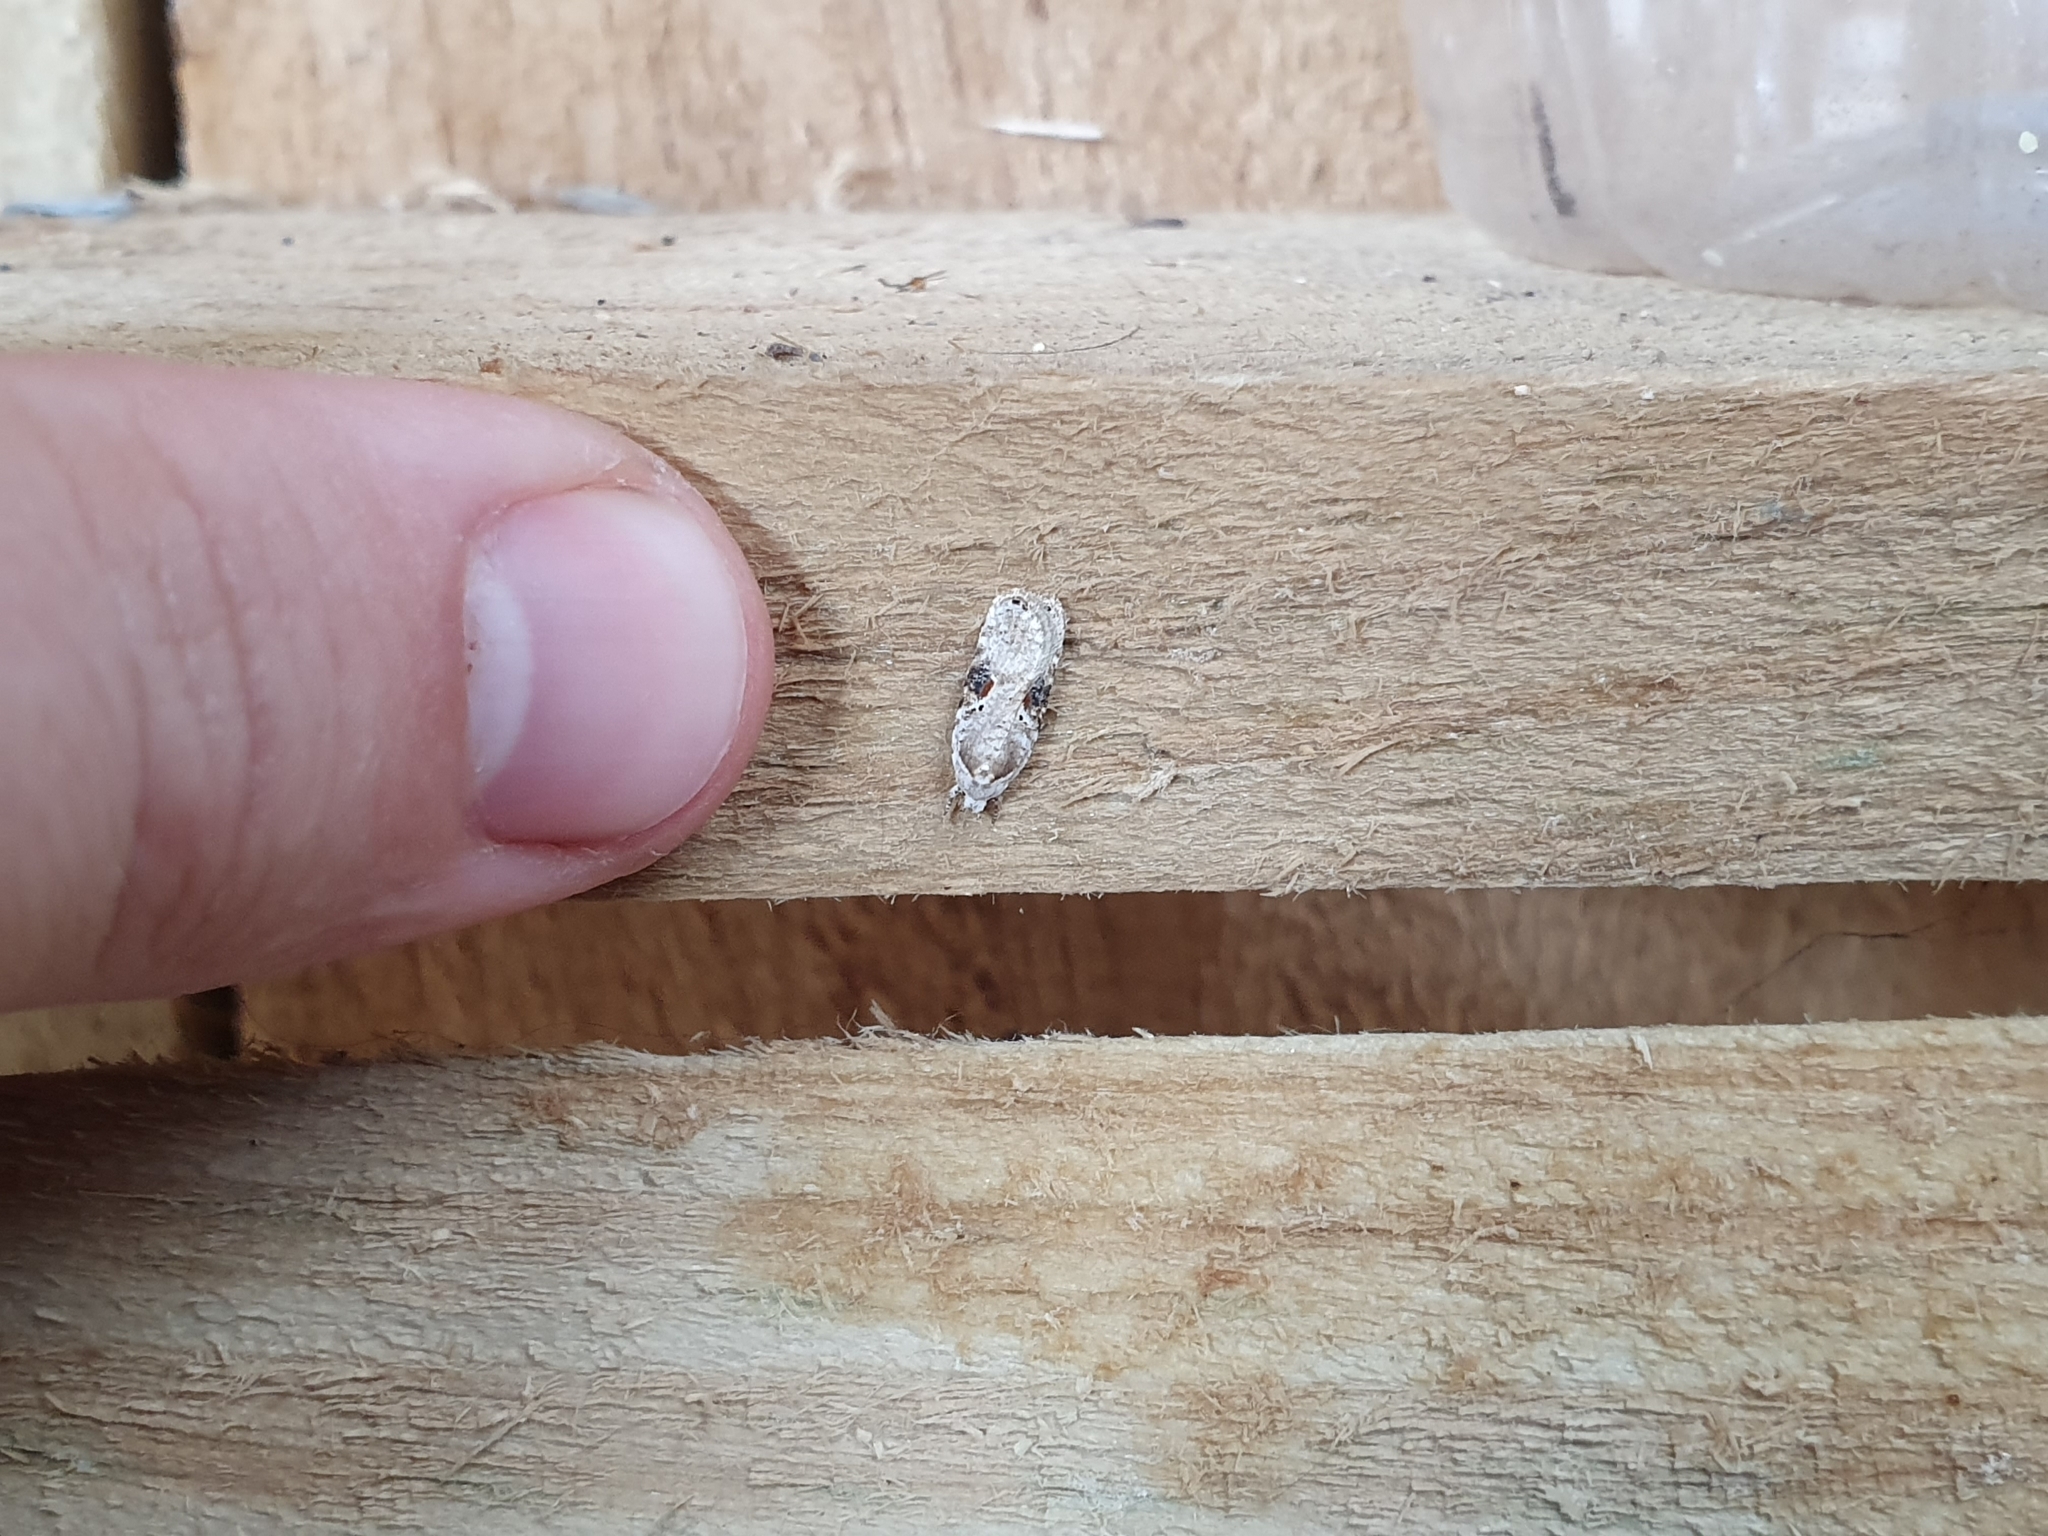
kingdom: Animalia
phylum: Arthropoda
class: Insecta
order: Lepidoptera
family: Depressariidae
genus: Agonopterix
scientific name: Agonopterix alstroemeriana
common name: Moth
